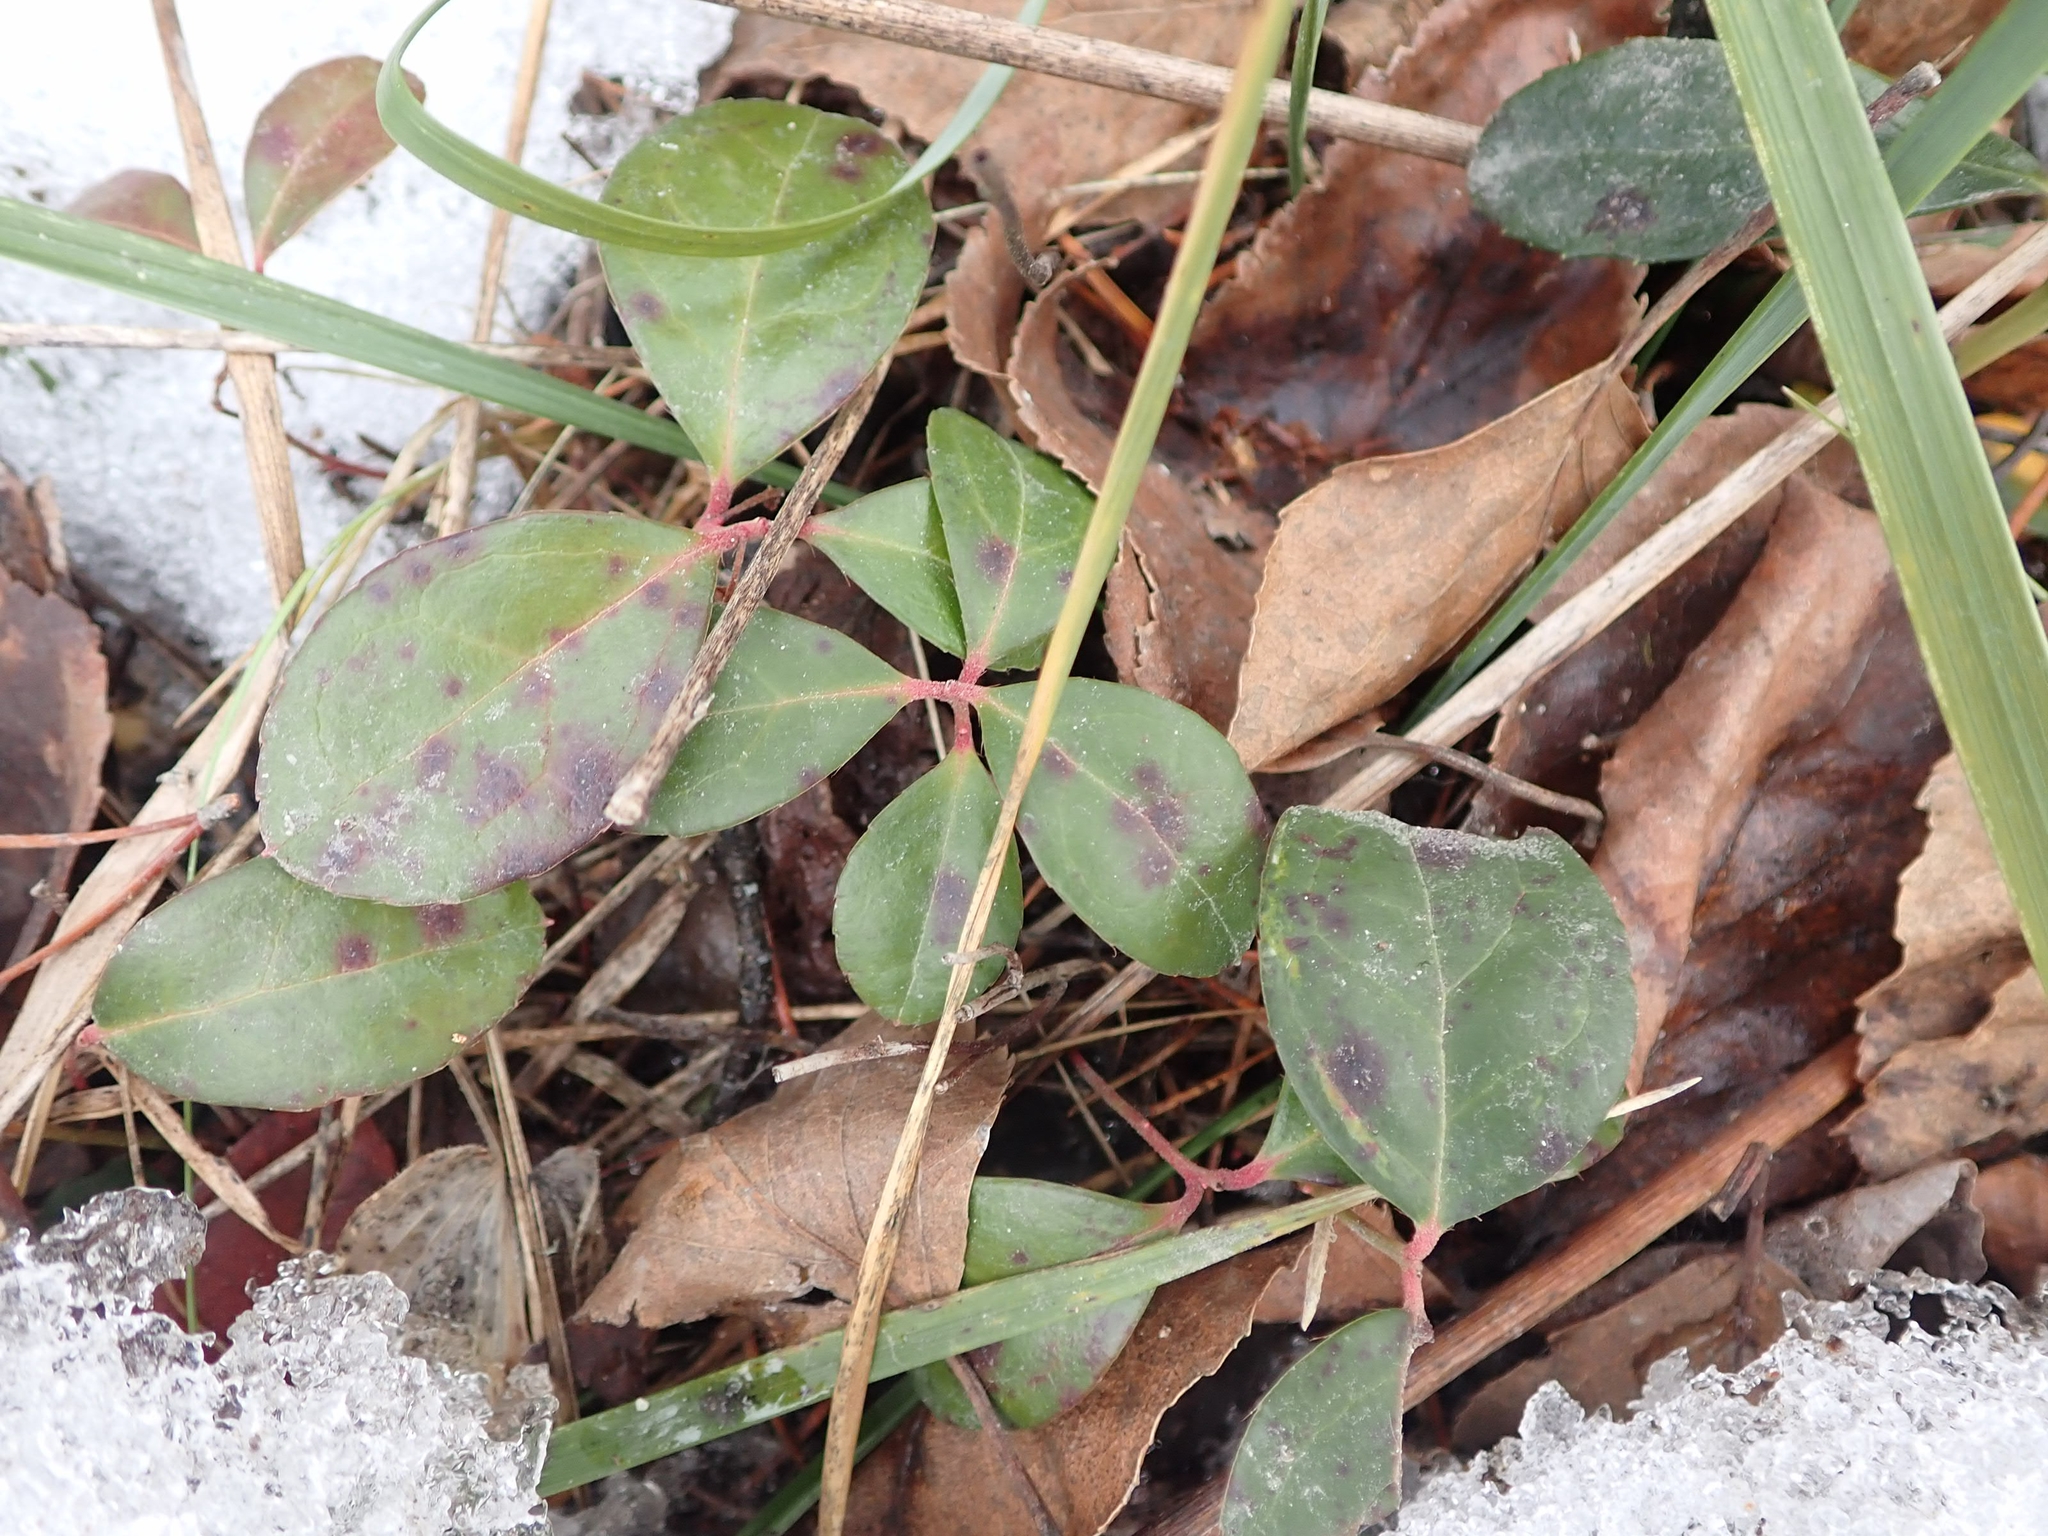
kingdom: Plantae
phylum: Tracheophyta
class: Magnoliopsida
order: Ericales
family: Ericaceae
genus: Gaultheria
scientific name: Gaultheria procumbens
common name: Checkerberry
